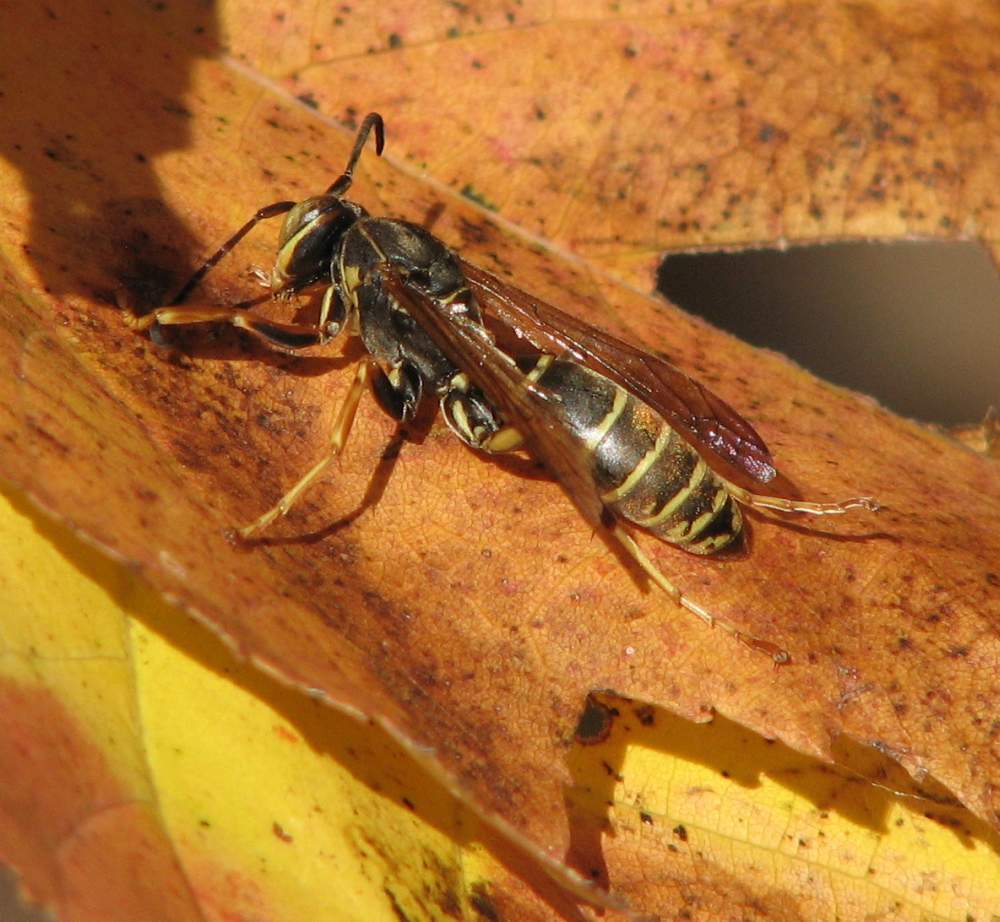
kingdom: Animalia
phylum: Arthropoda
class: Insecta
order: Hymenoptera
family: Eumenidae
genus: Polistes
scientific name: Polistes fuscatus
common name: Dark paper wasp
